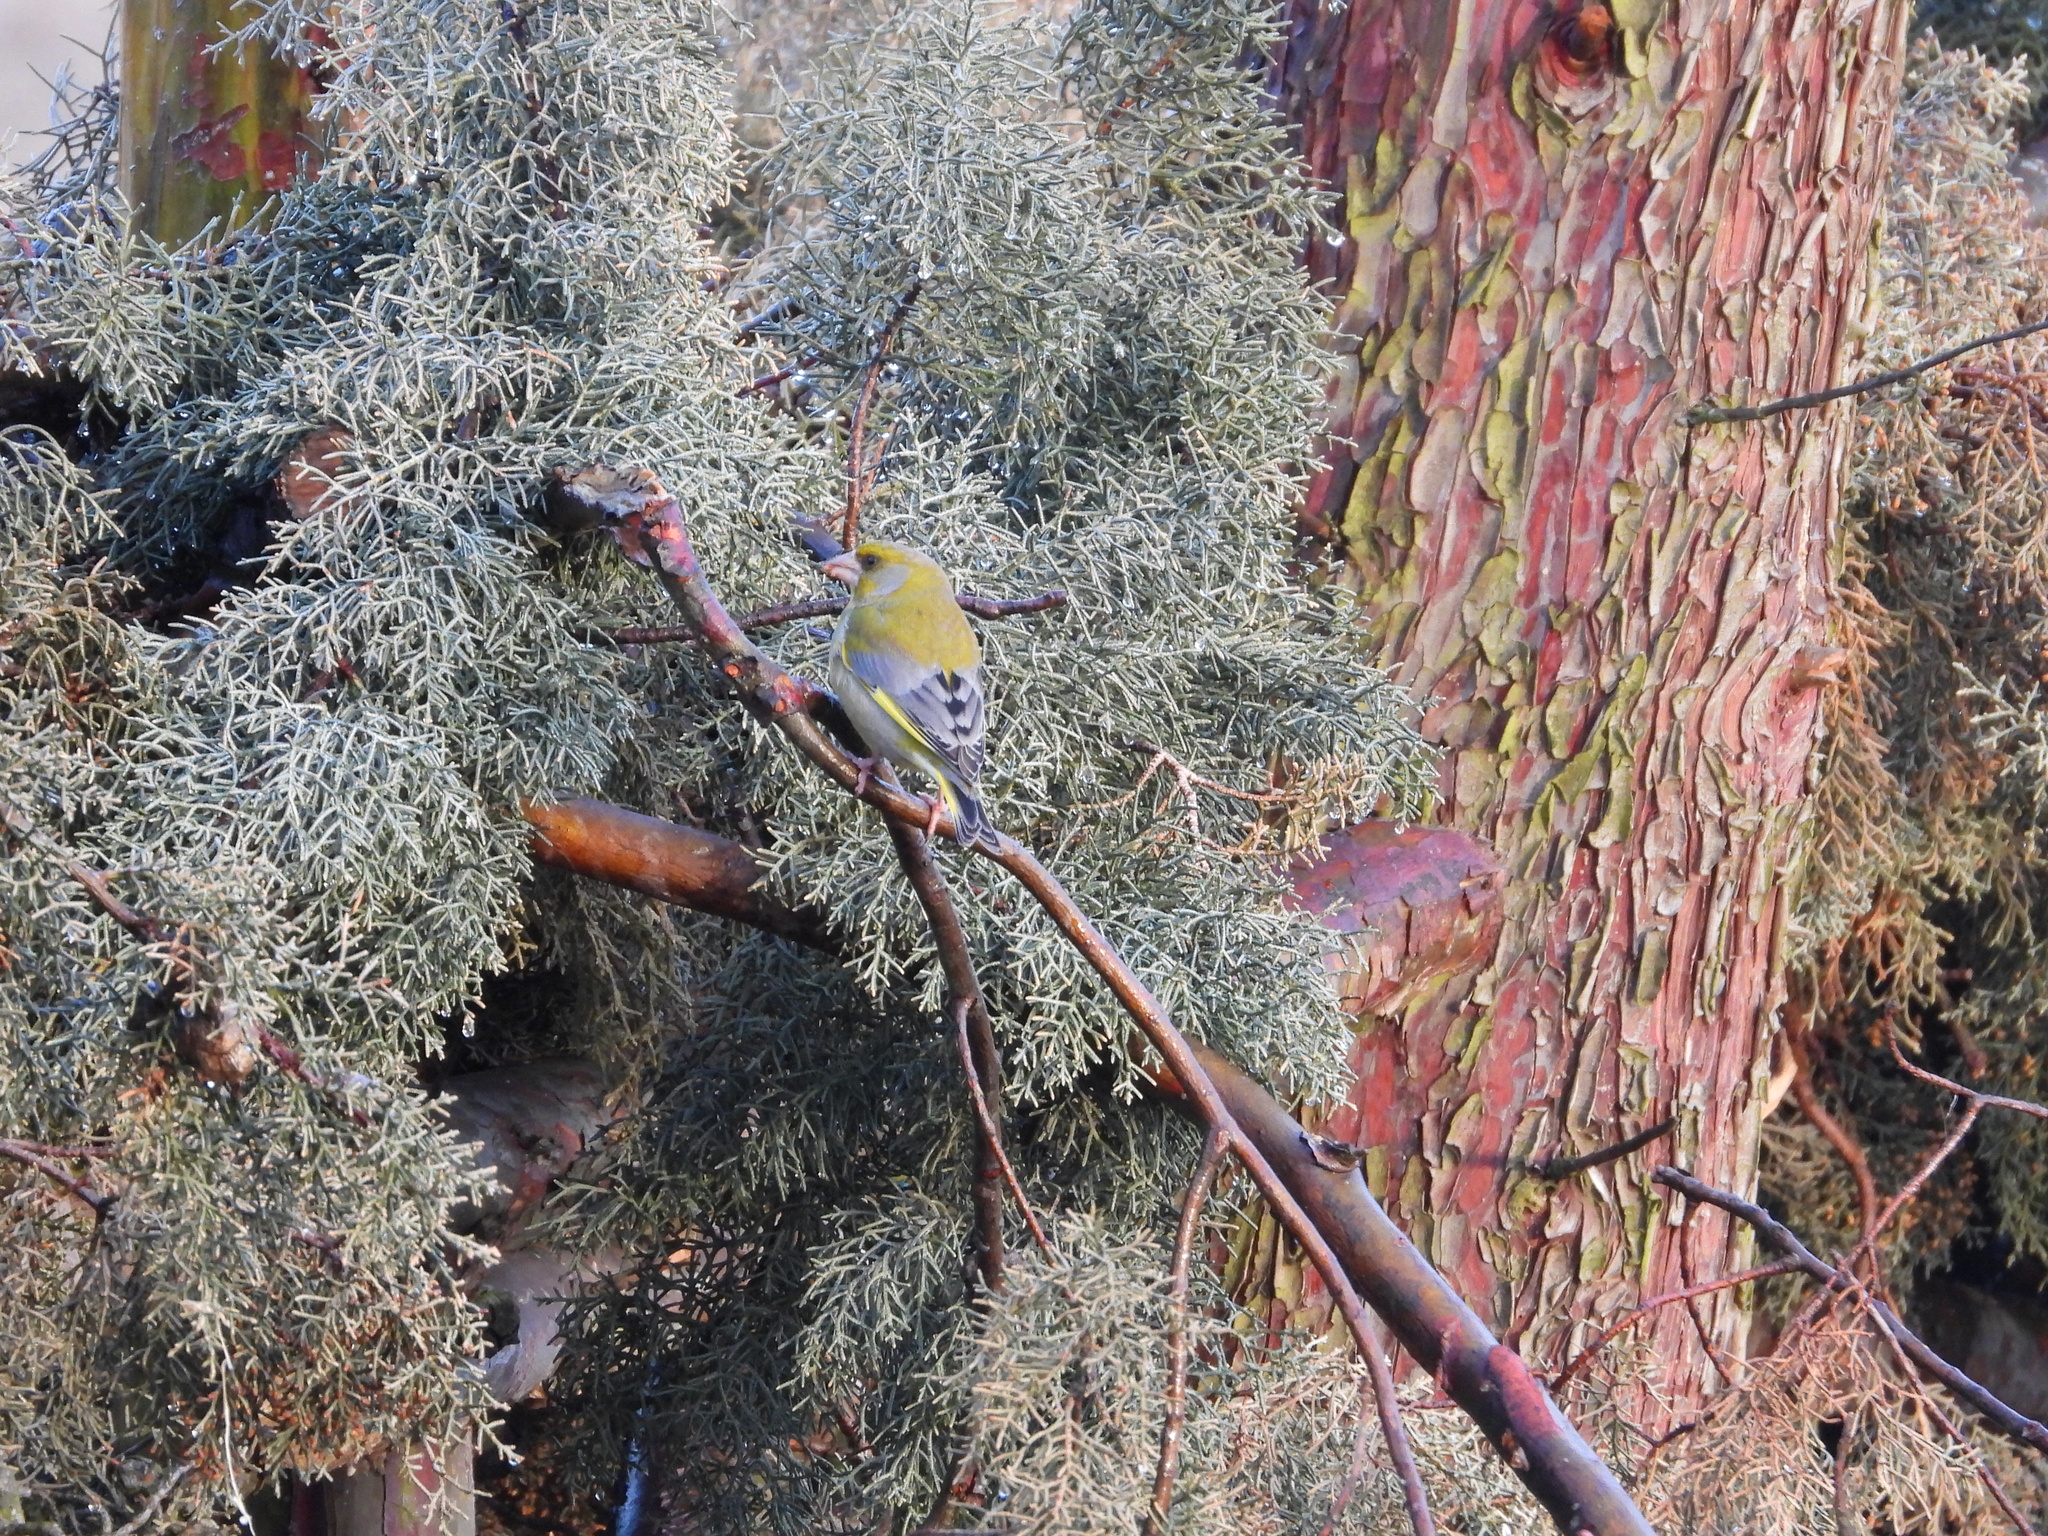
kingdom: Plantae
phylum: Tracheophyta
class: Liliopsida
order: Poales
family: Poaceae
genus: Chloris
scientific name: Chloris chloris
